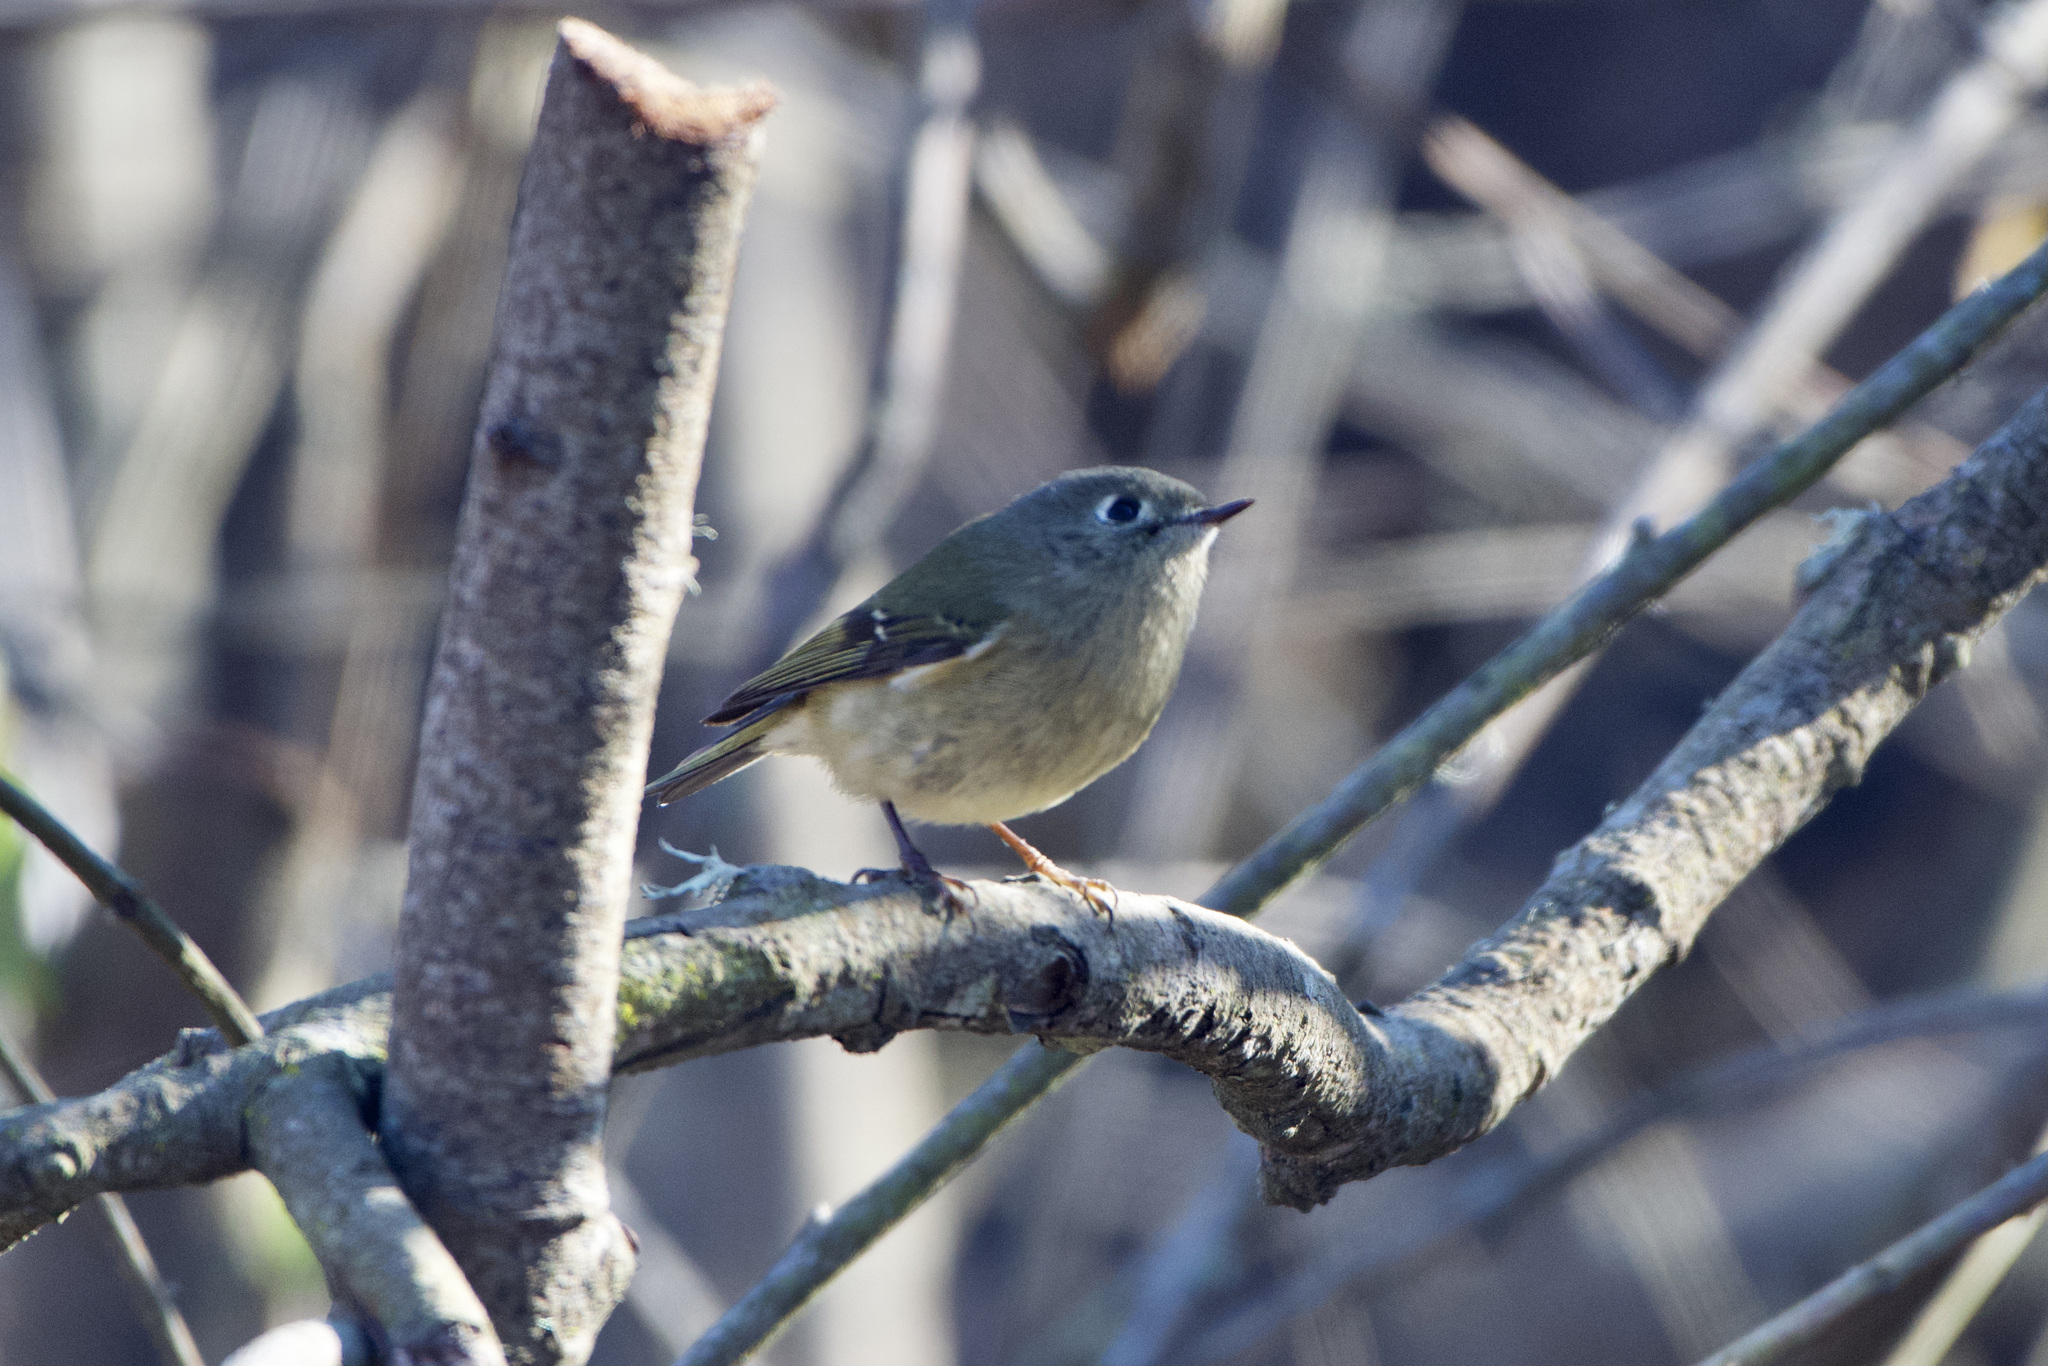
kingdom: Animalia
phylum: Chordata
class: Aves
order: Passeriformes
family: Regulidae
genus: Regulus
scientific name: Regulus calendula
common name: Ruby-crowned kinglet
